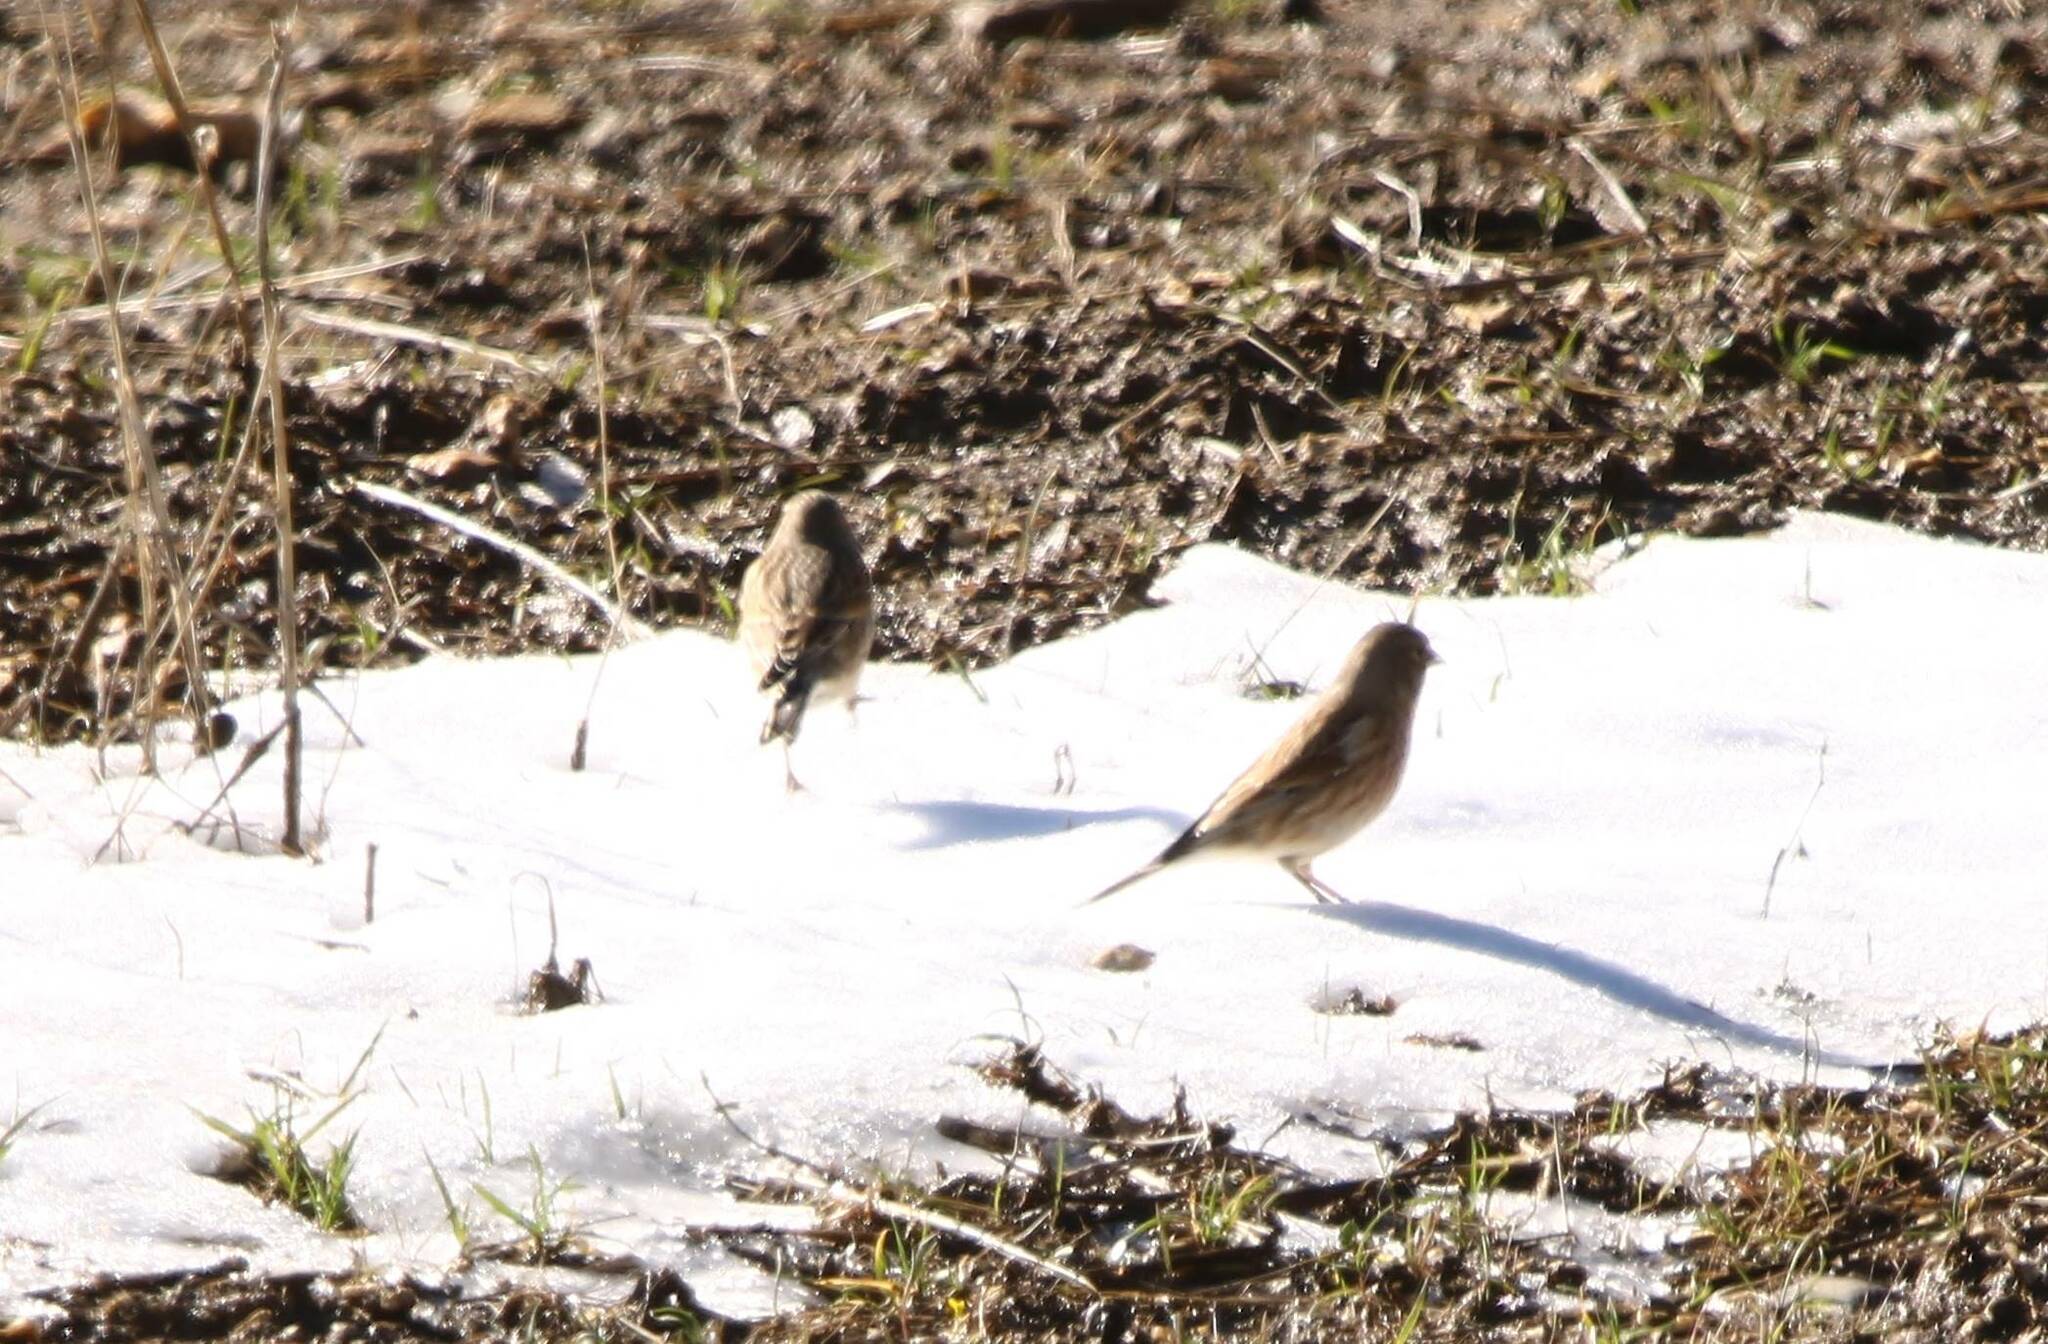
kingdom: Animalia
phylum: Chordata
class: Aves
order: Passeriformes
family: Fringillidae
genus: Linaria
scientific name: Linaria cannabina
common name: Common linnet
